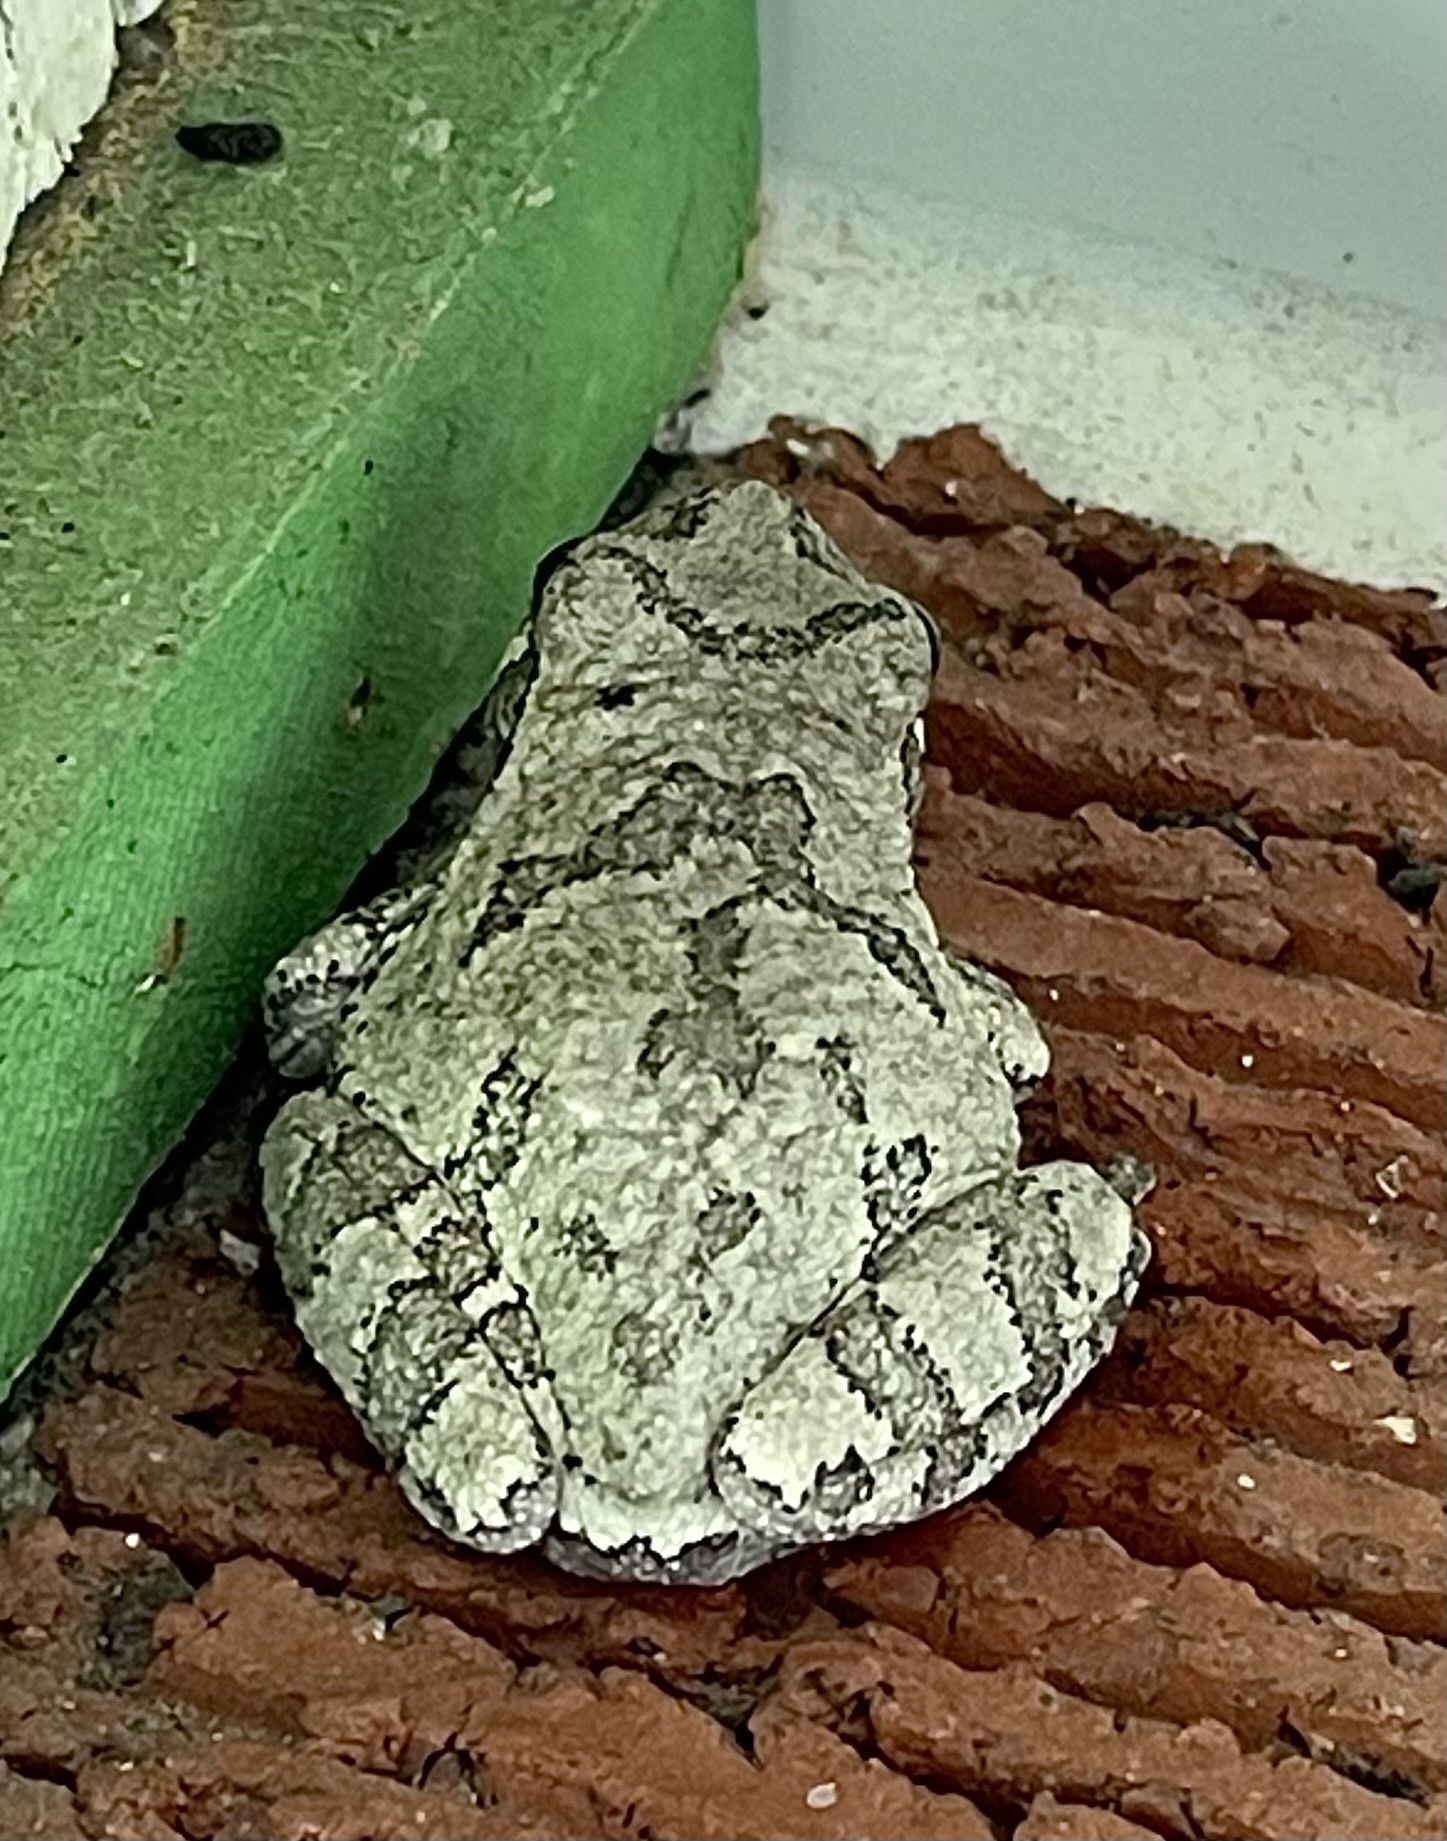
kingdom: Animalia
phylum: Chordata
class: Amphibia
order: Anura
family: Hylidae
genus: Dryophytes
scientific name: Dryophytes chrysoscelis
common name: Cope's gray treefrog
